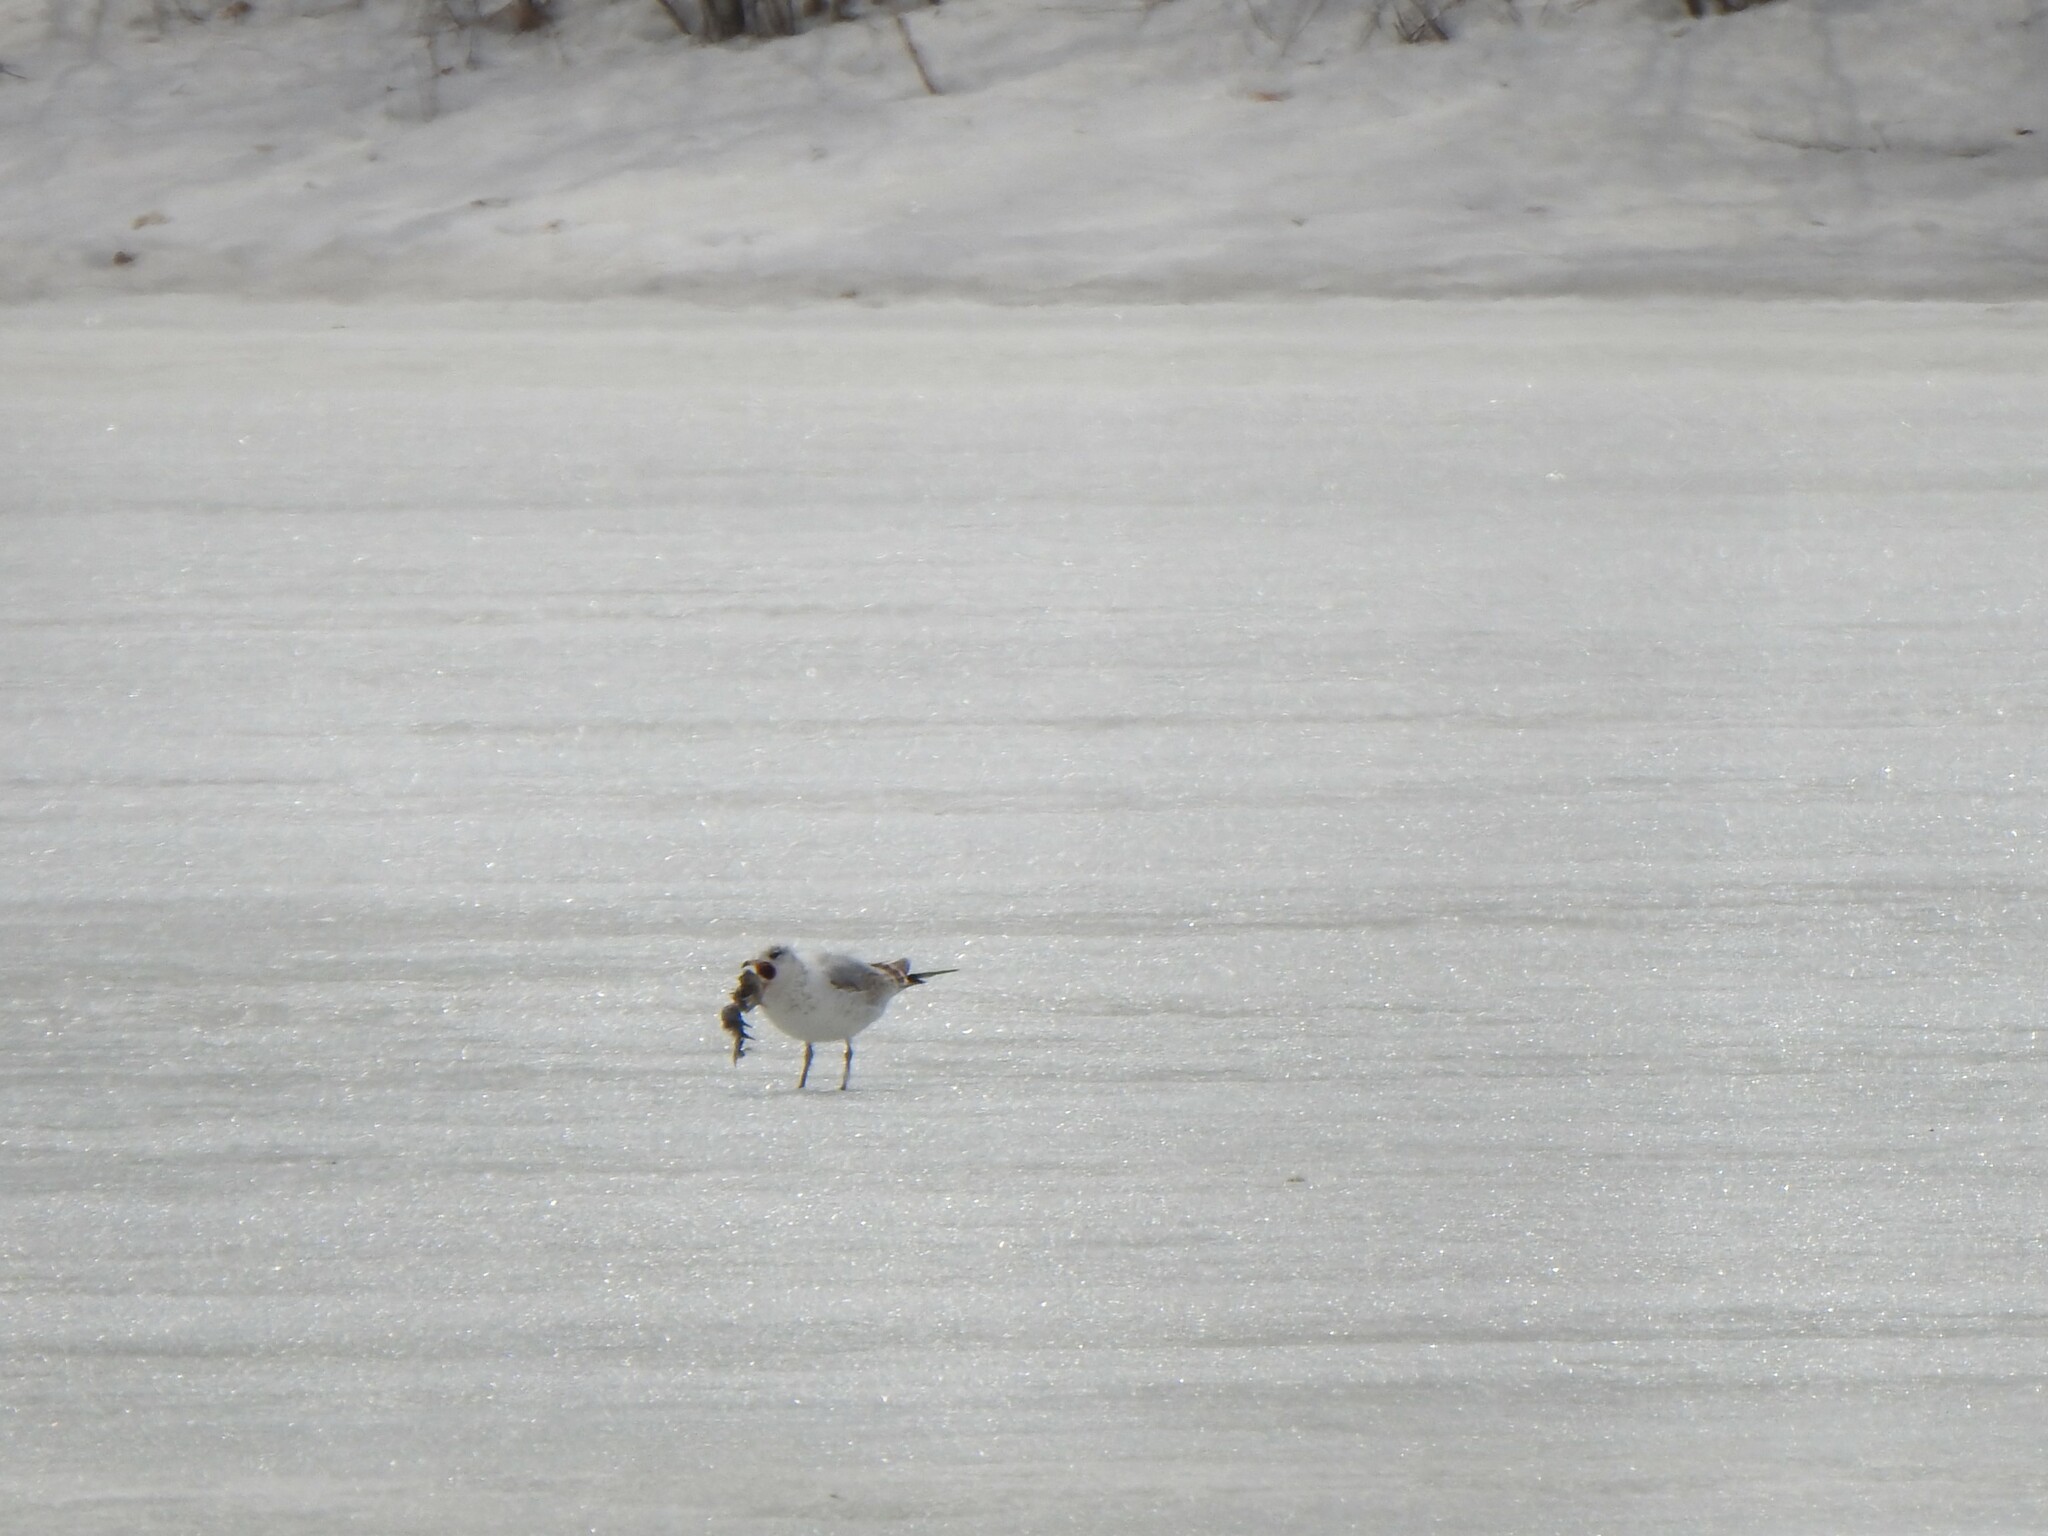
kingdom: Animalia
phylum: Chordata
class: Aves
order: Charadriiformes
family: Laridae
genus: Larus
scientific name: Larus delawarensis
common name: Ring-billed gull
